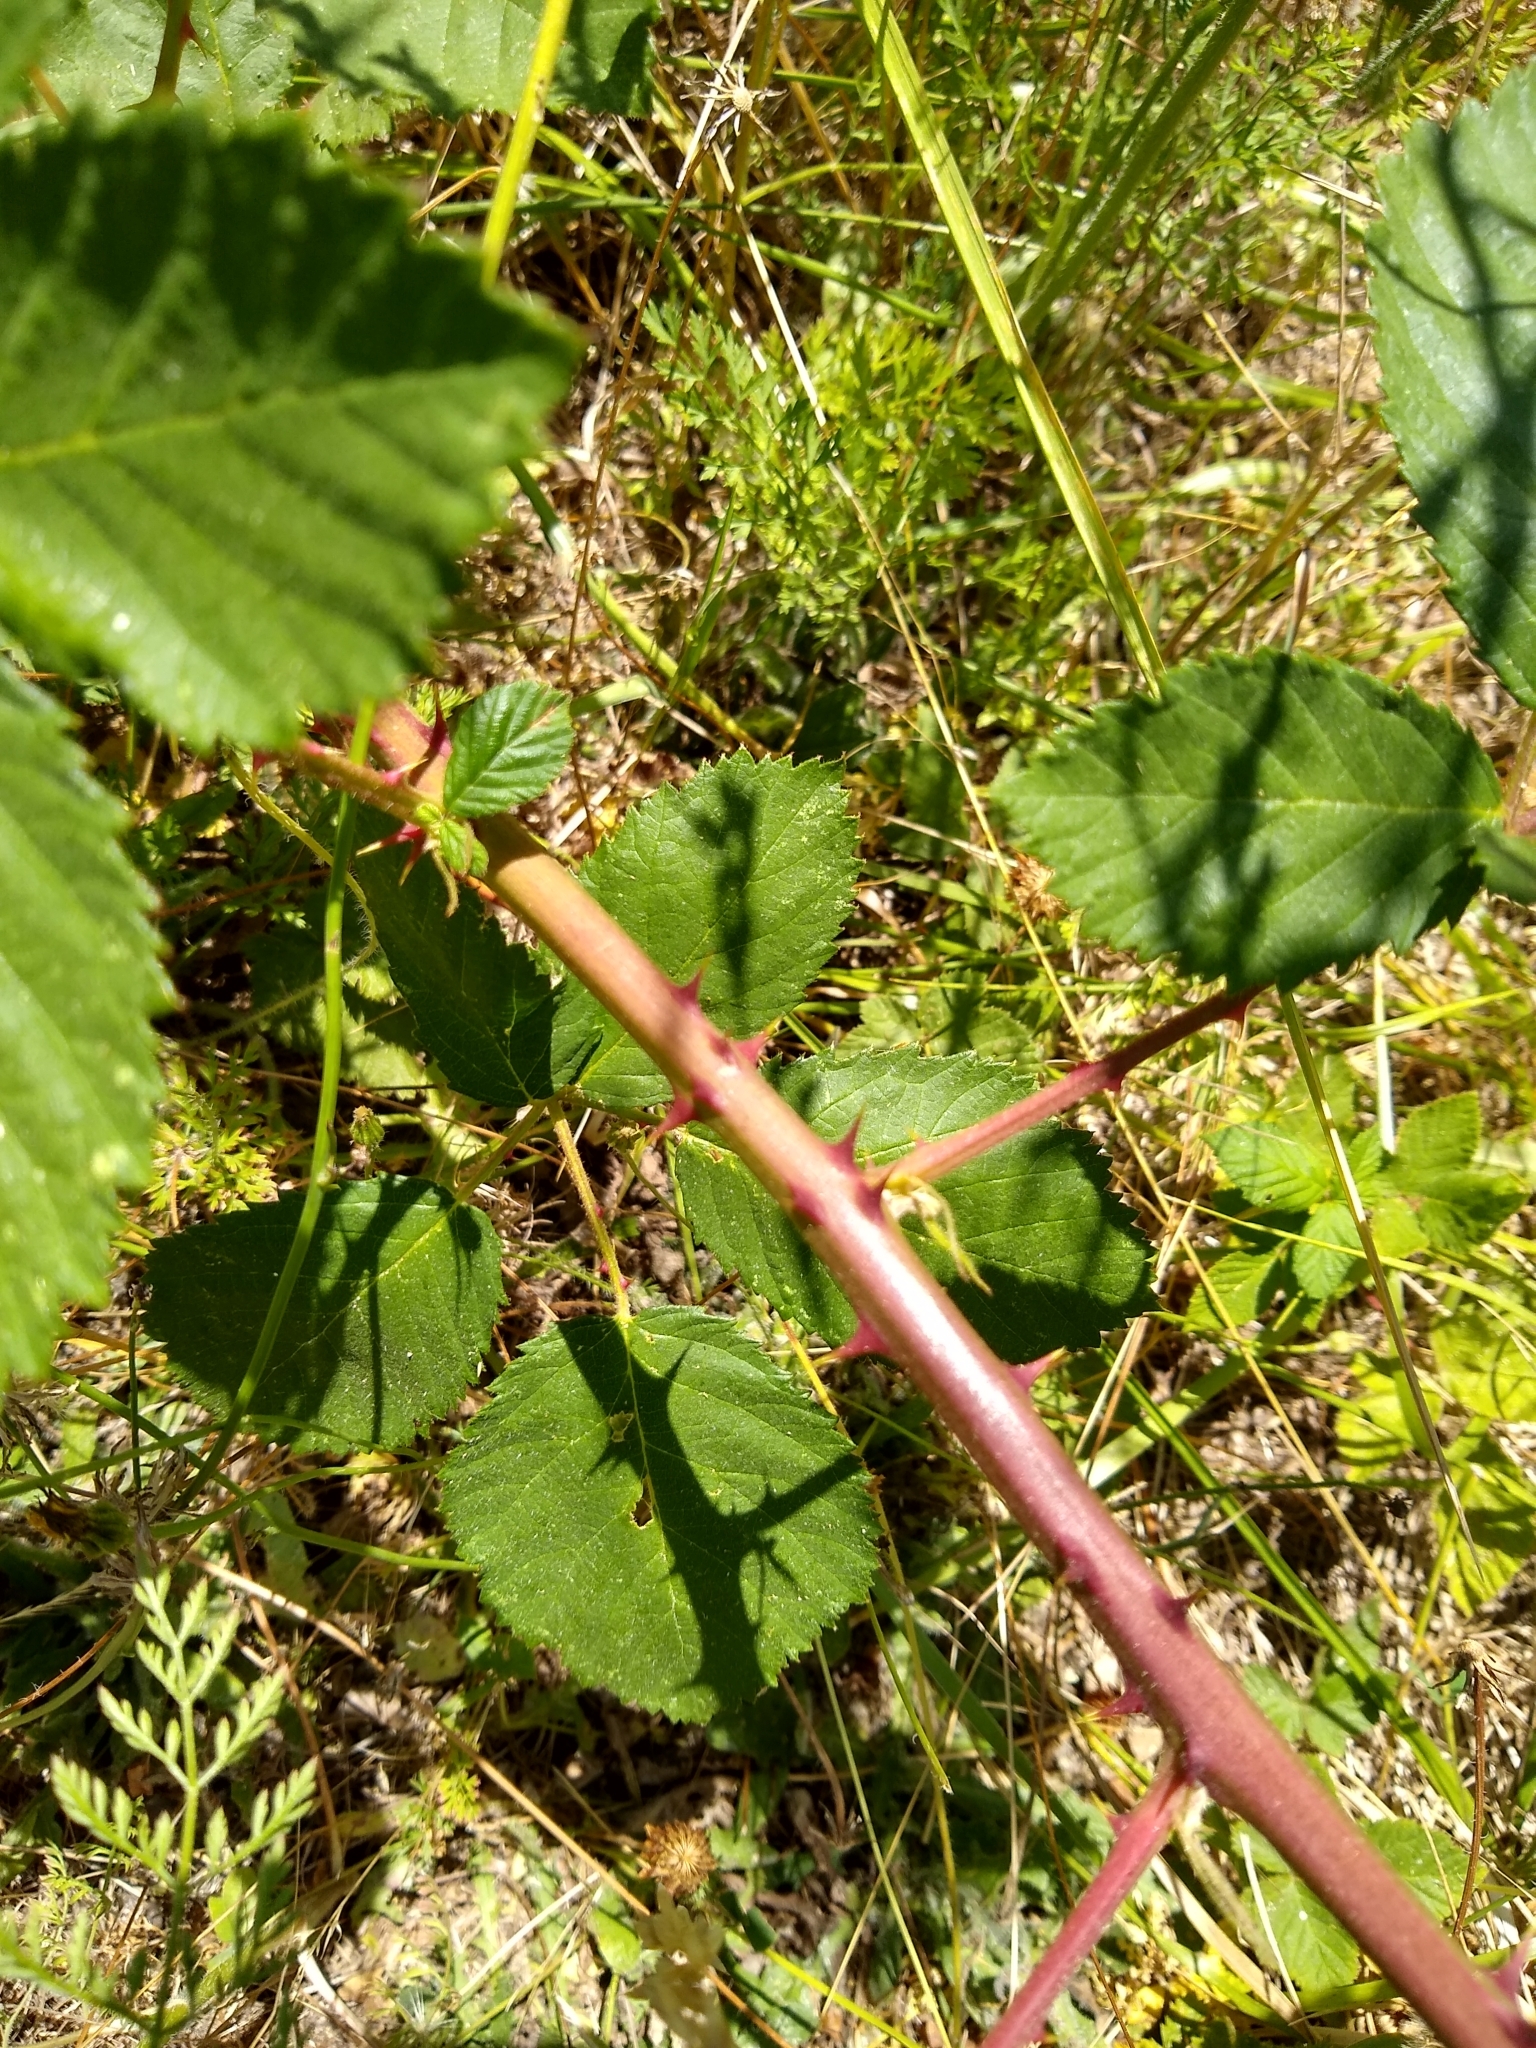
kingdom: Plantae
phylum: Tracheophyta
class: Magnoliopsida
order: Rosales
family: Rosaceae
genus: Rubus
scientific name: Rubus bifrons
